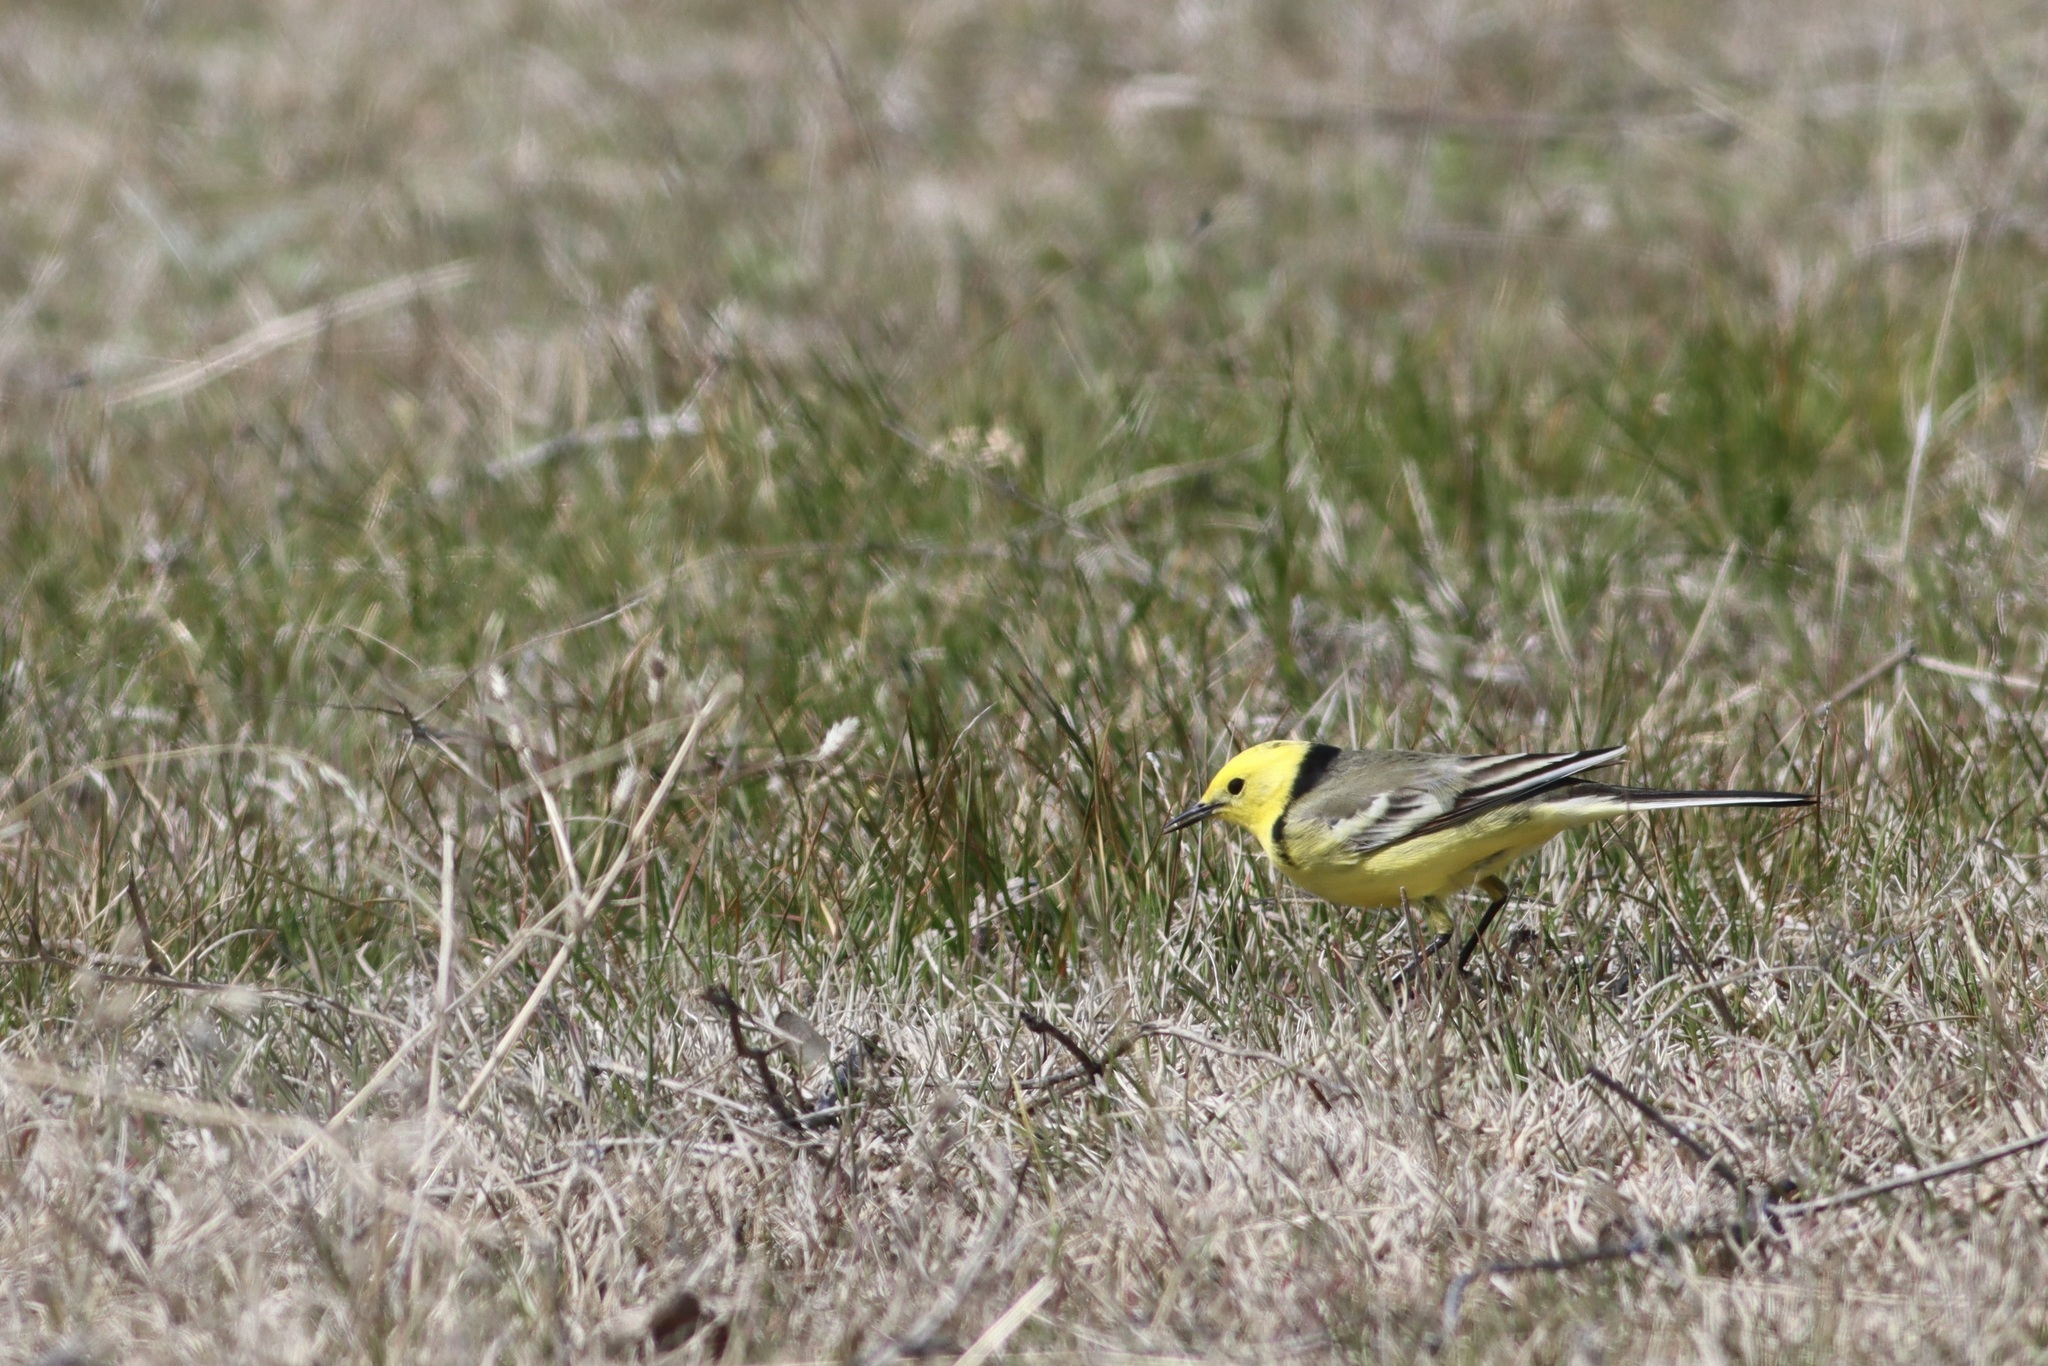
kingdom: Animalia
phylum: Chordata
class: Aves
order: Passeriformes
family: Motacillidae
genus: Motacilla
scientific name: Motacilla citreola
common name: Citrine wagtail
